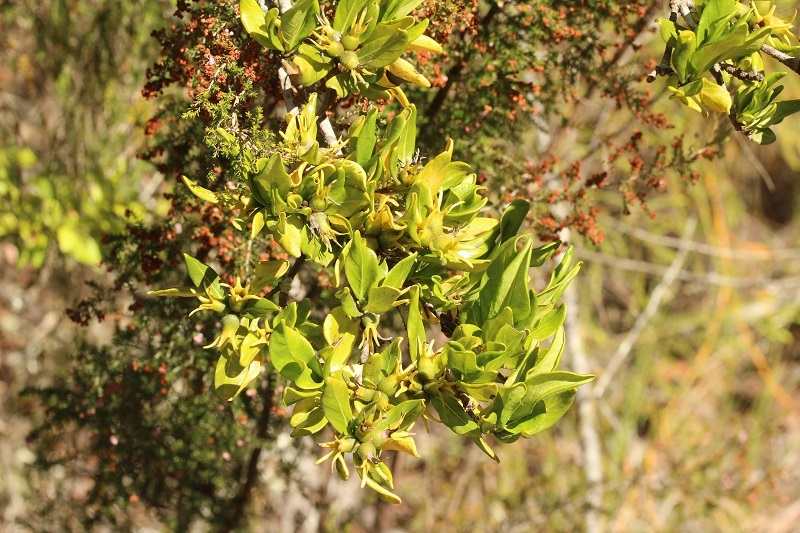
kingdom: Plantae
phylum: Tracheophyta
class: Magnoliopsida
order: Gentianales
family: Rubiaceae
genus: Burchellia
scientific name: Burchellia bubalina
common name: Wild pomegranate
